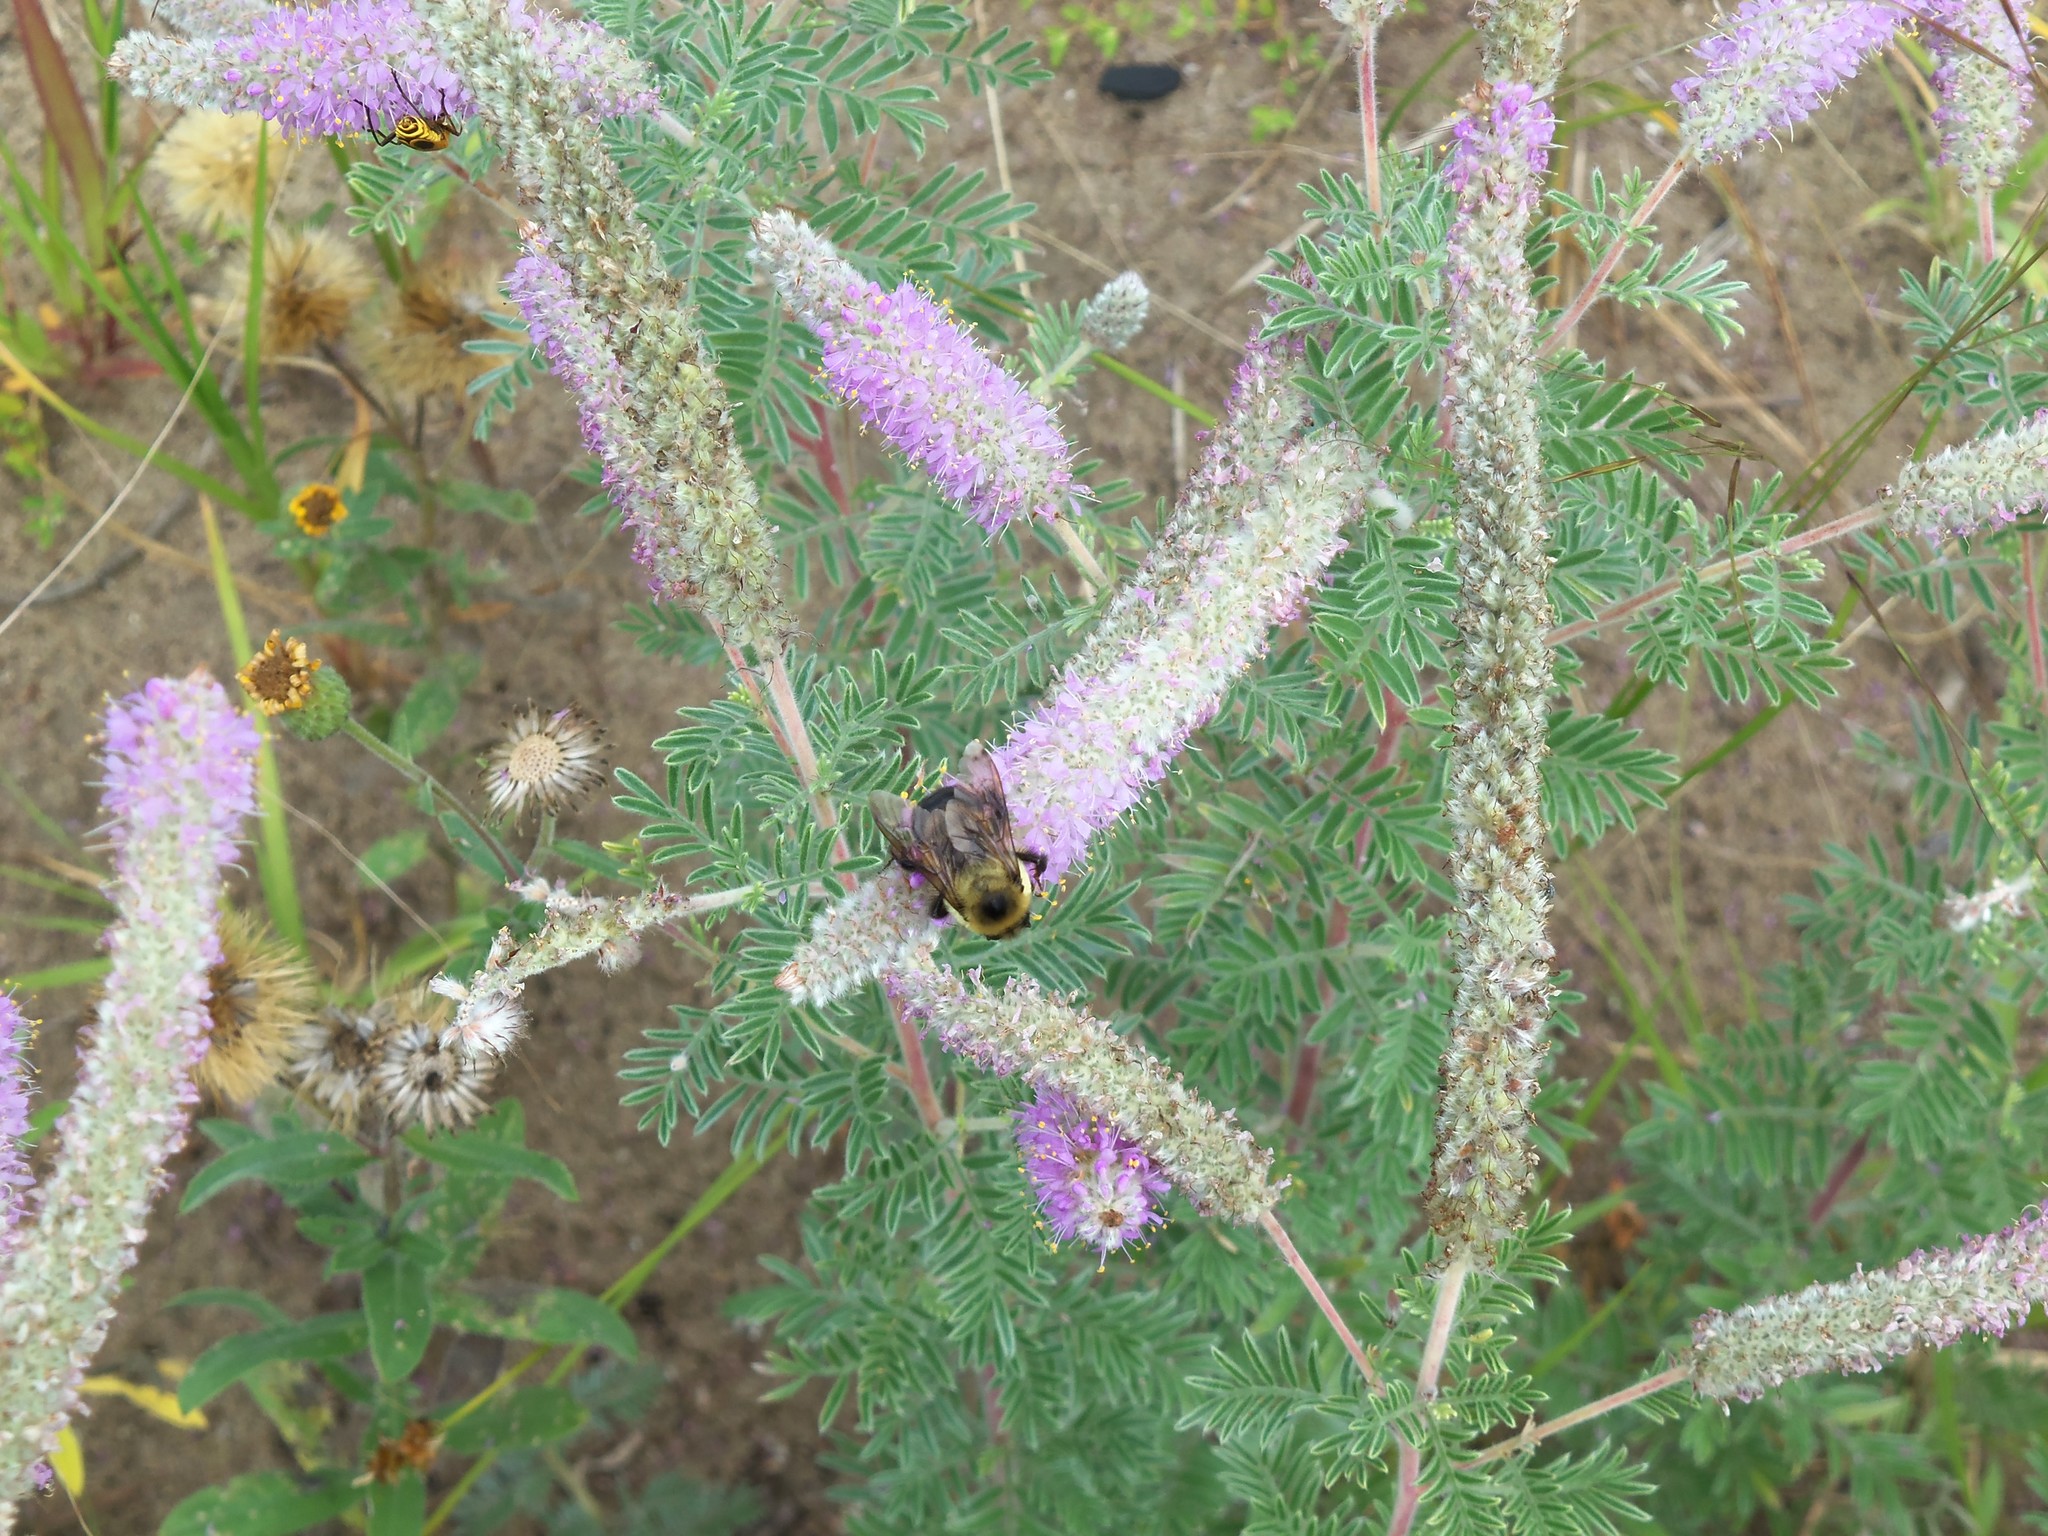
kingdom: Plantae
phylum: Tracheophyta
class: Magnoliopsida
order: Fabales
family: Fabaceae
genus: Dalea
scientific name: Dalea villosa
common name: Silky prairie-clover
